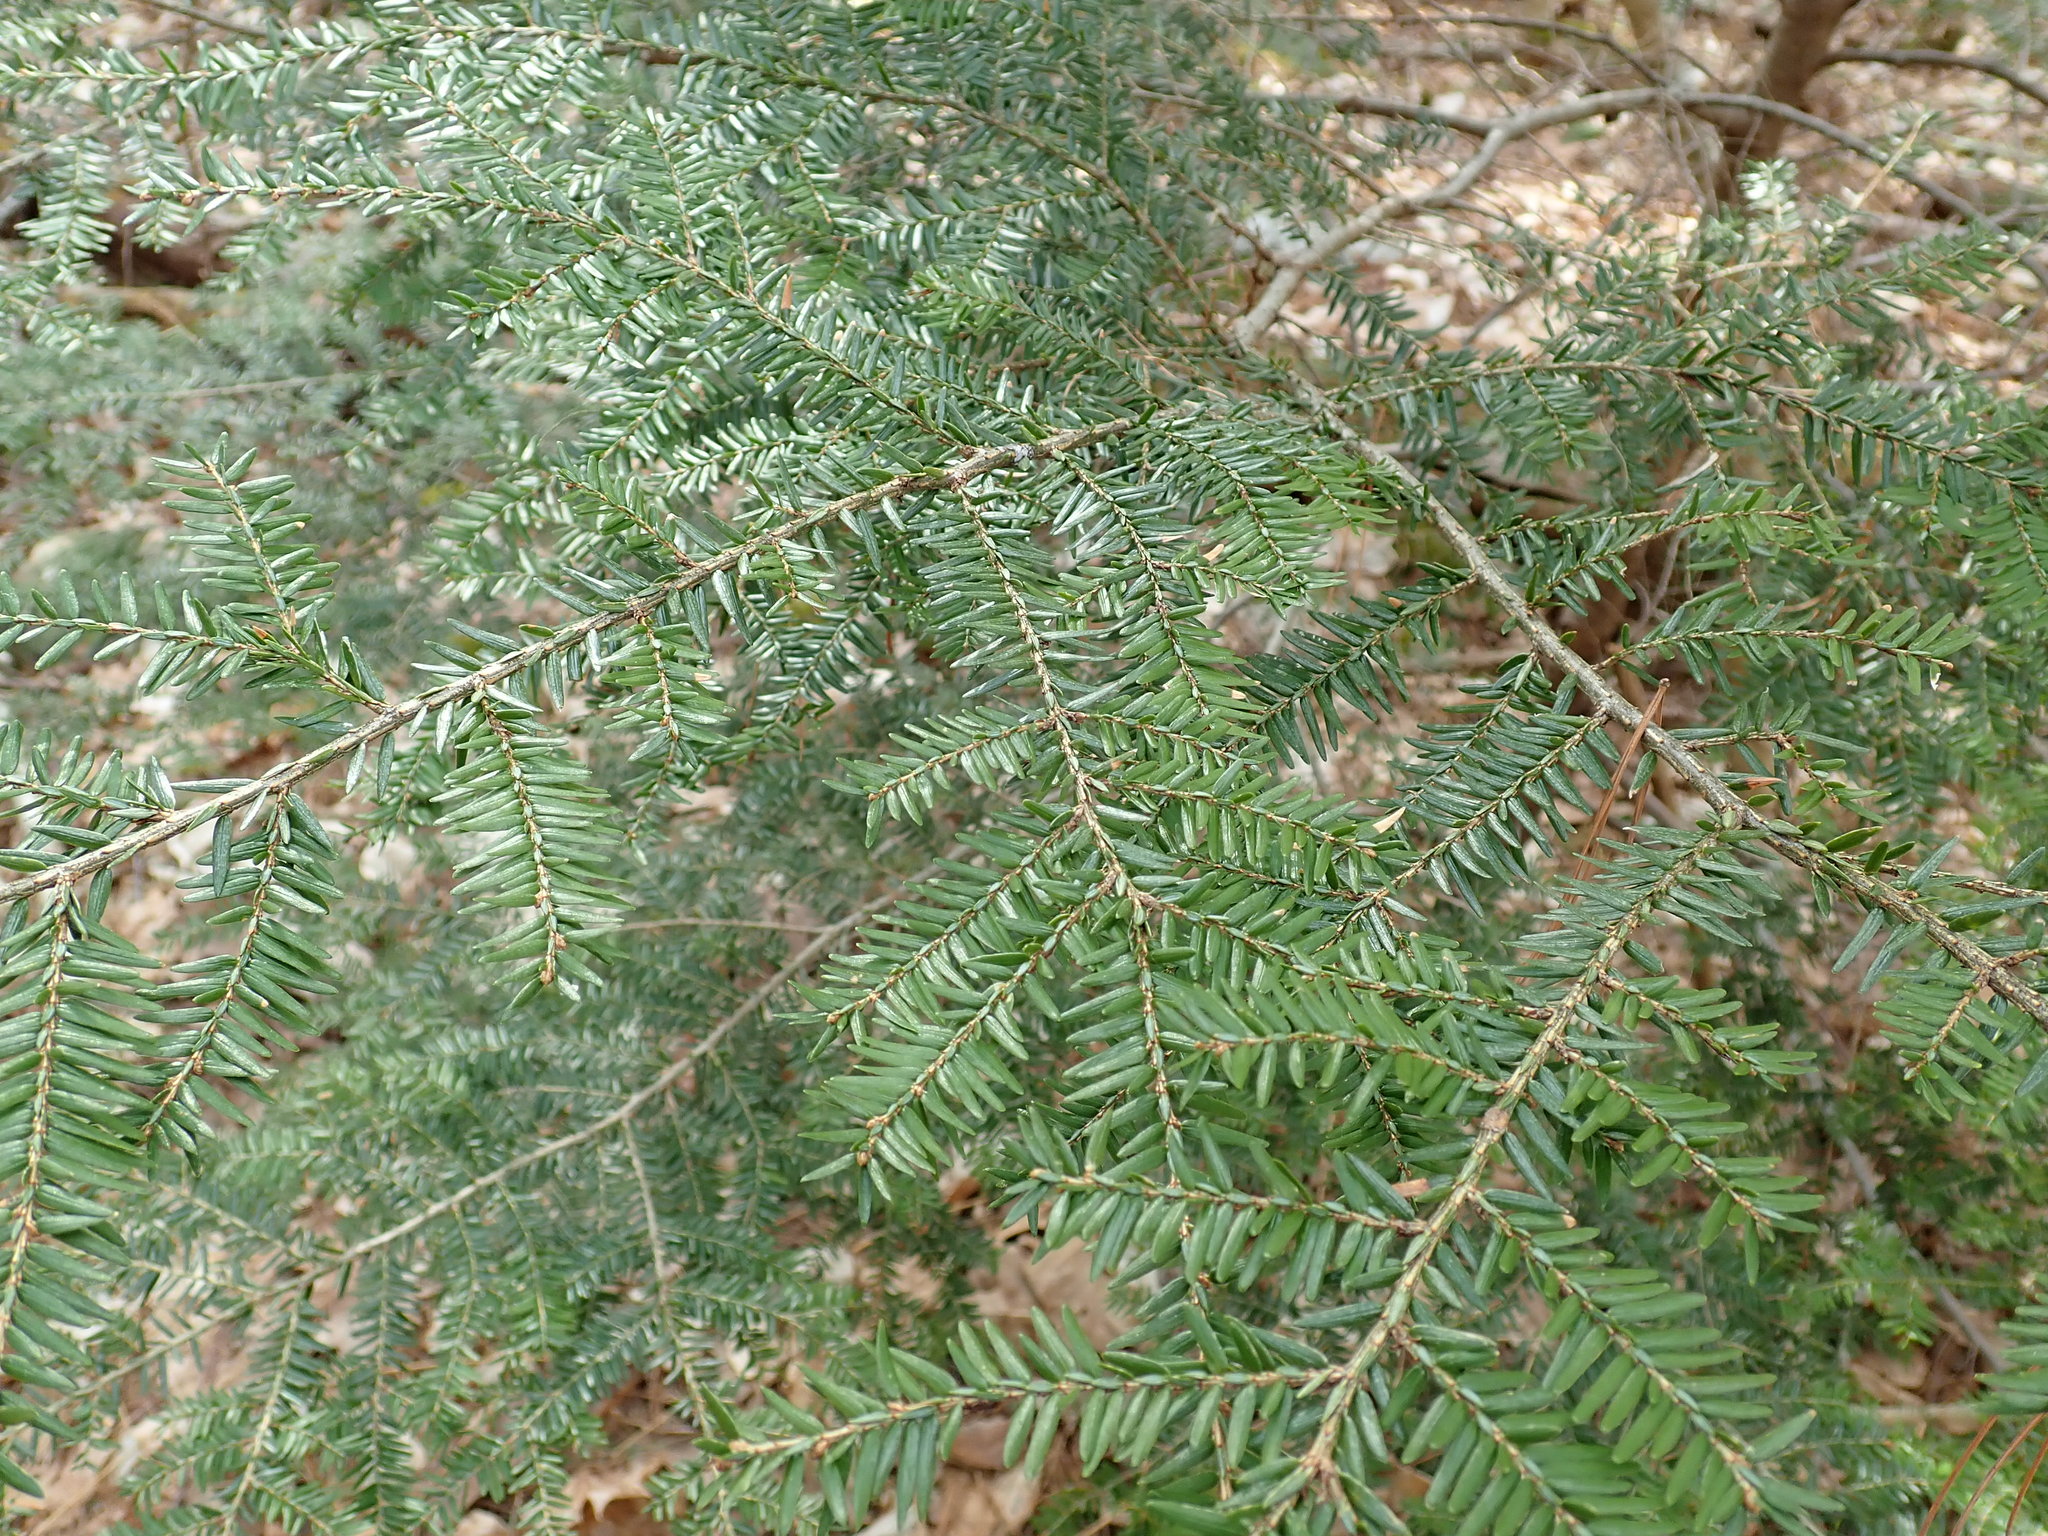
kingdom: Plantae
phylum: Tracheophyta
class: Pinopsida
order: Pinales
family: Pinaceae
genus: Tsuga
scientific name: Tsuga canadensis
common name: Eastern hemlock
